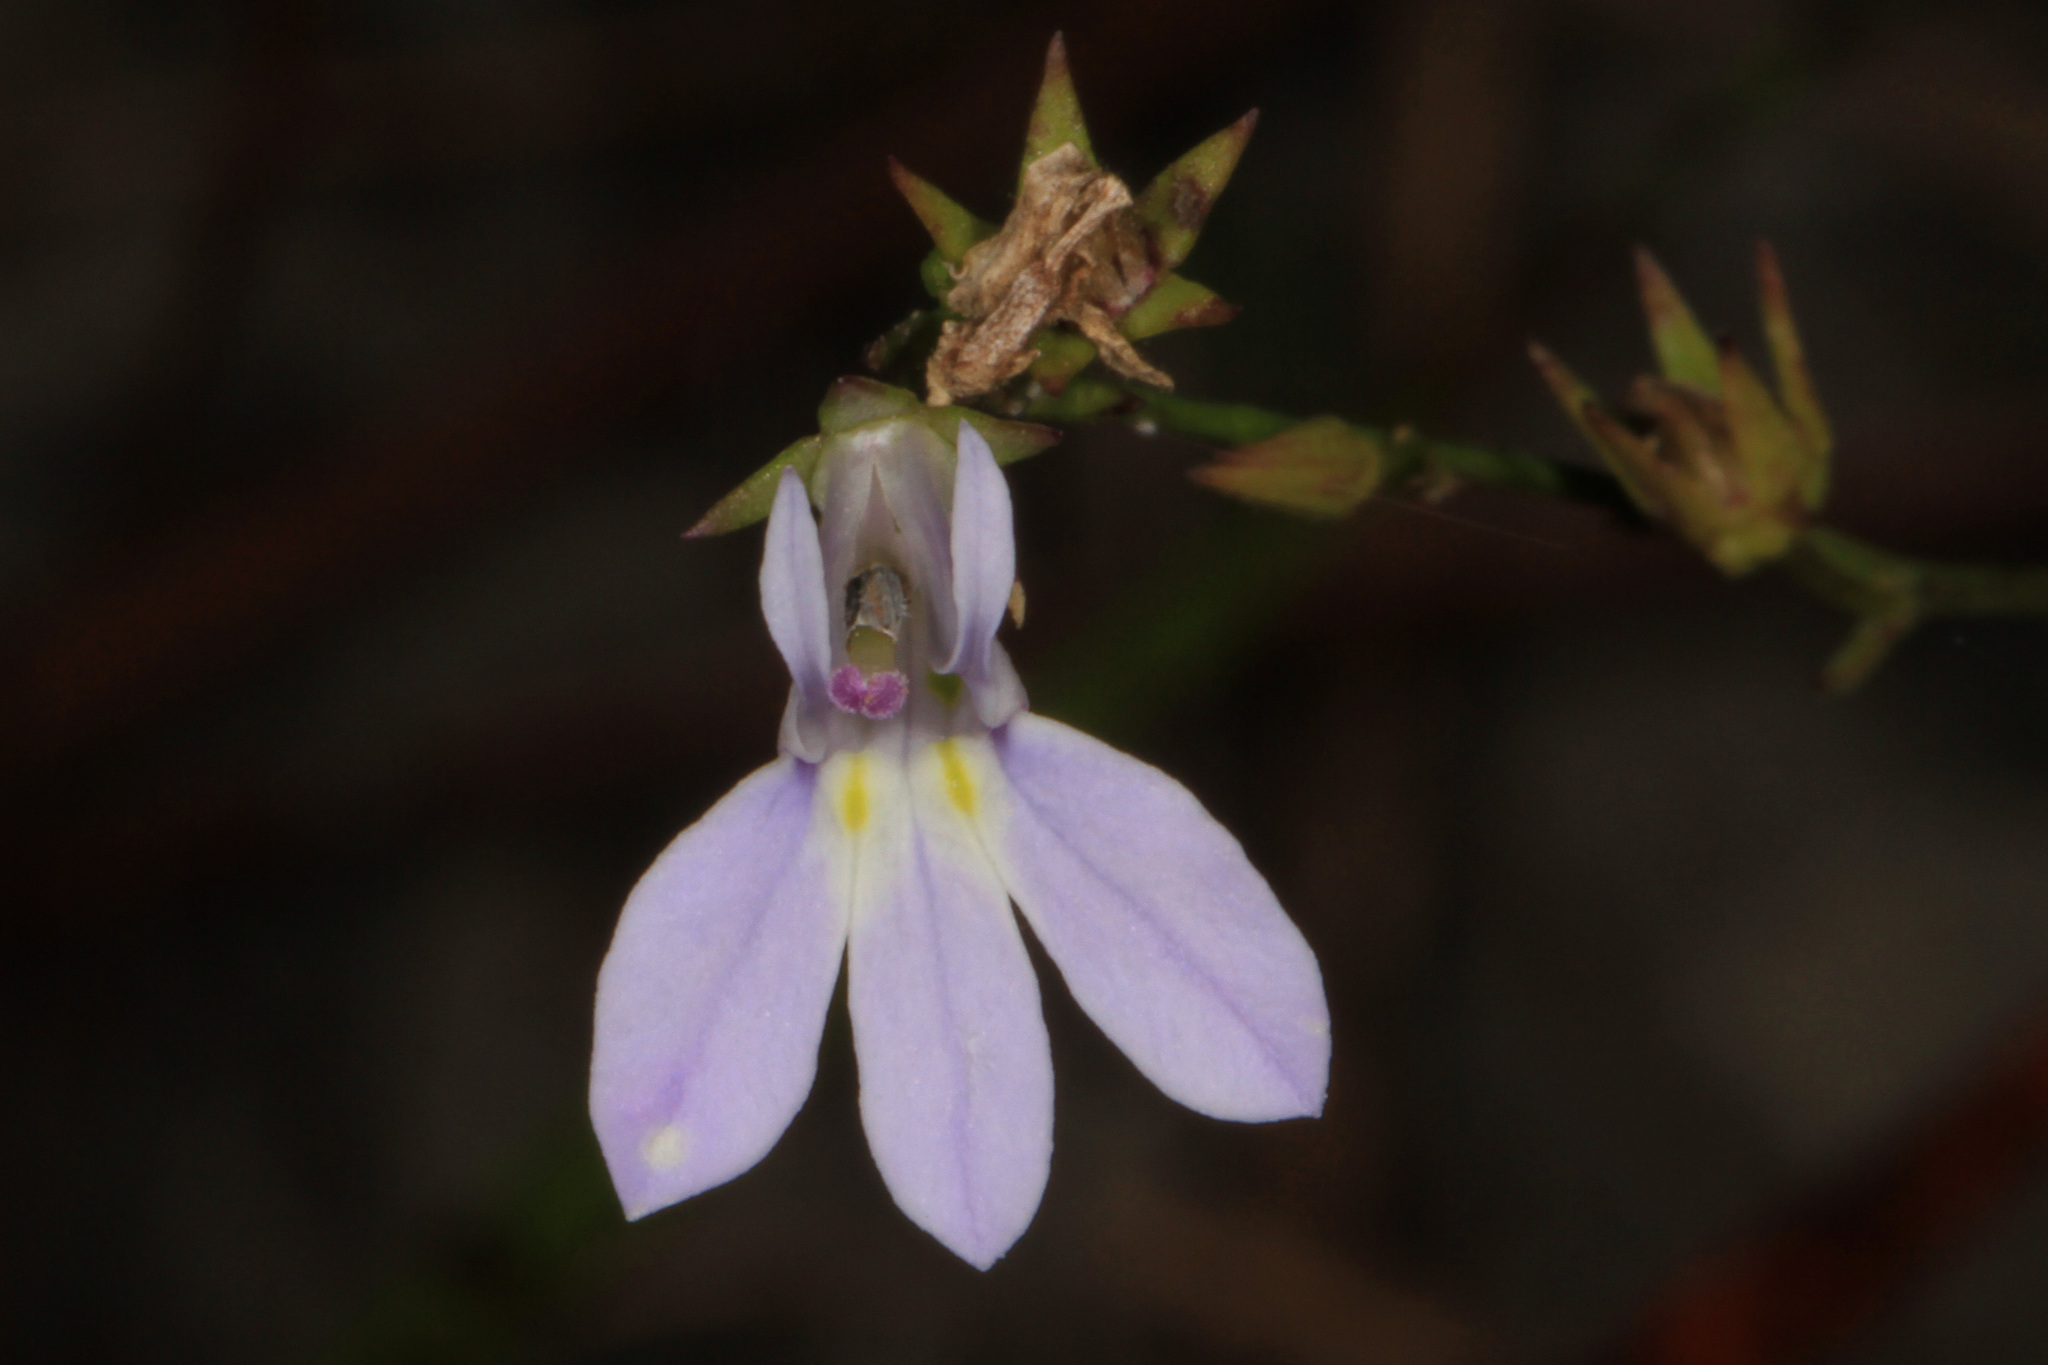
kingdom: Plantae
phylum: Tracheophyta
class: Magnoliopsida
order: Asterales
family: Campanulaceae
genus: Lobelia
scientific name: Lobelia nuttallii
